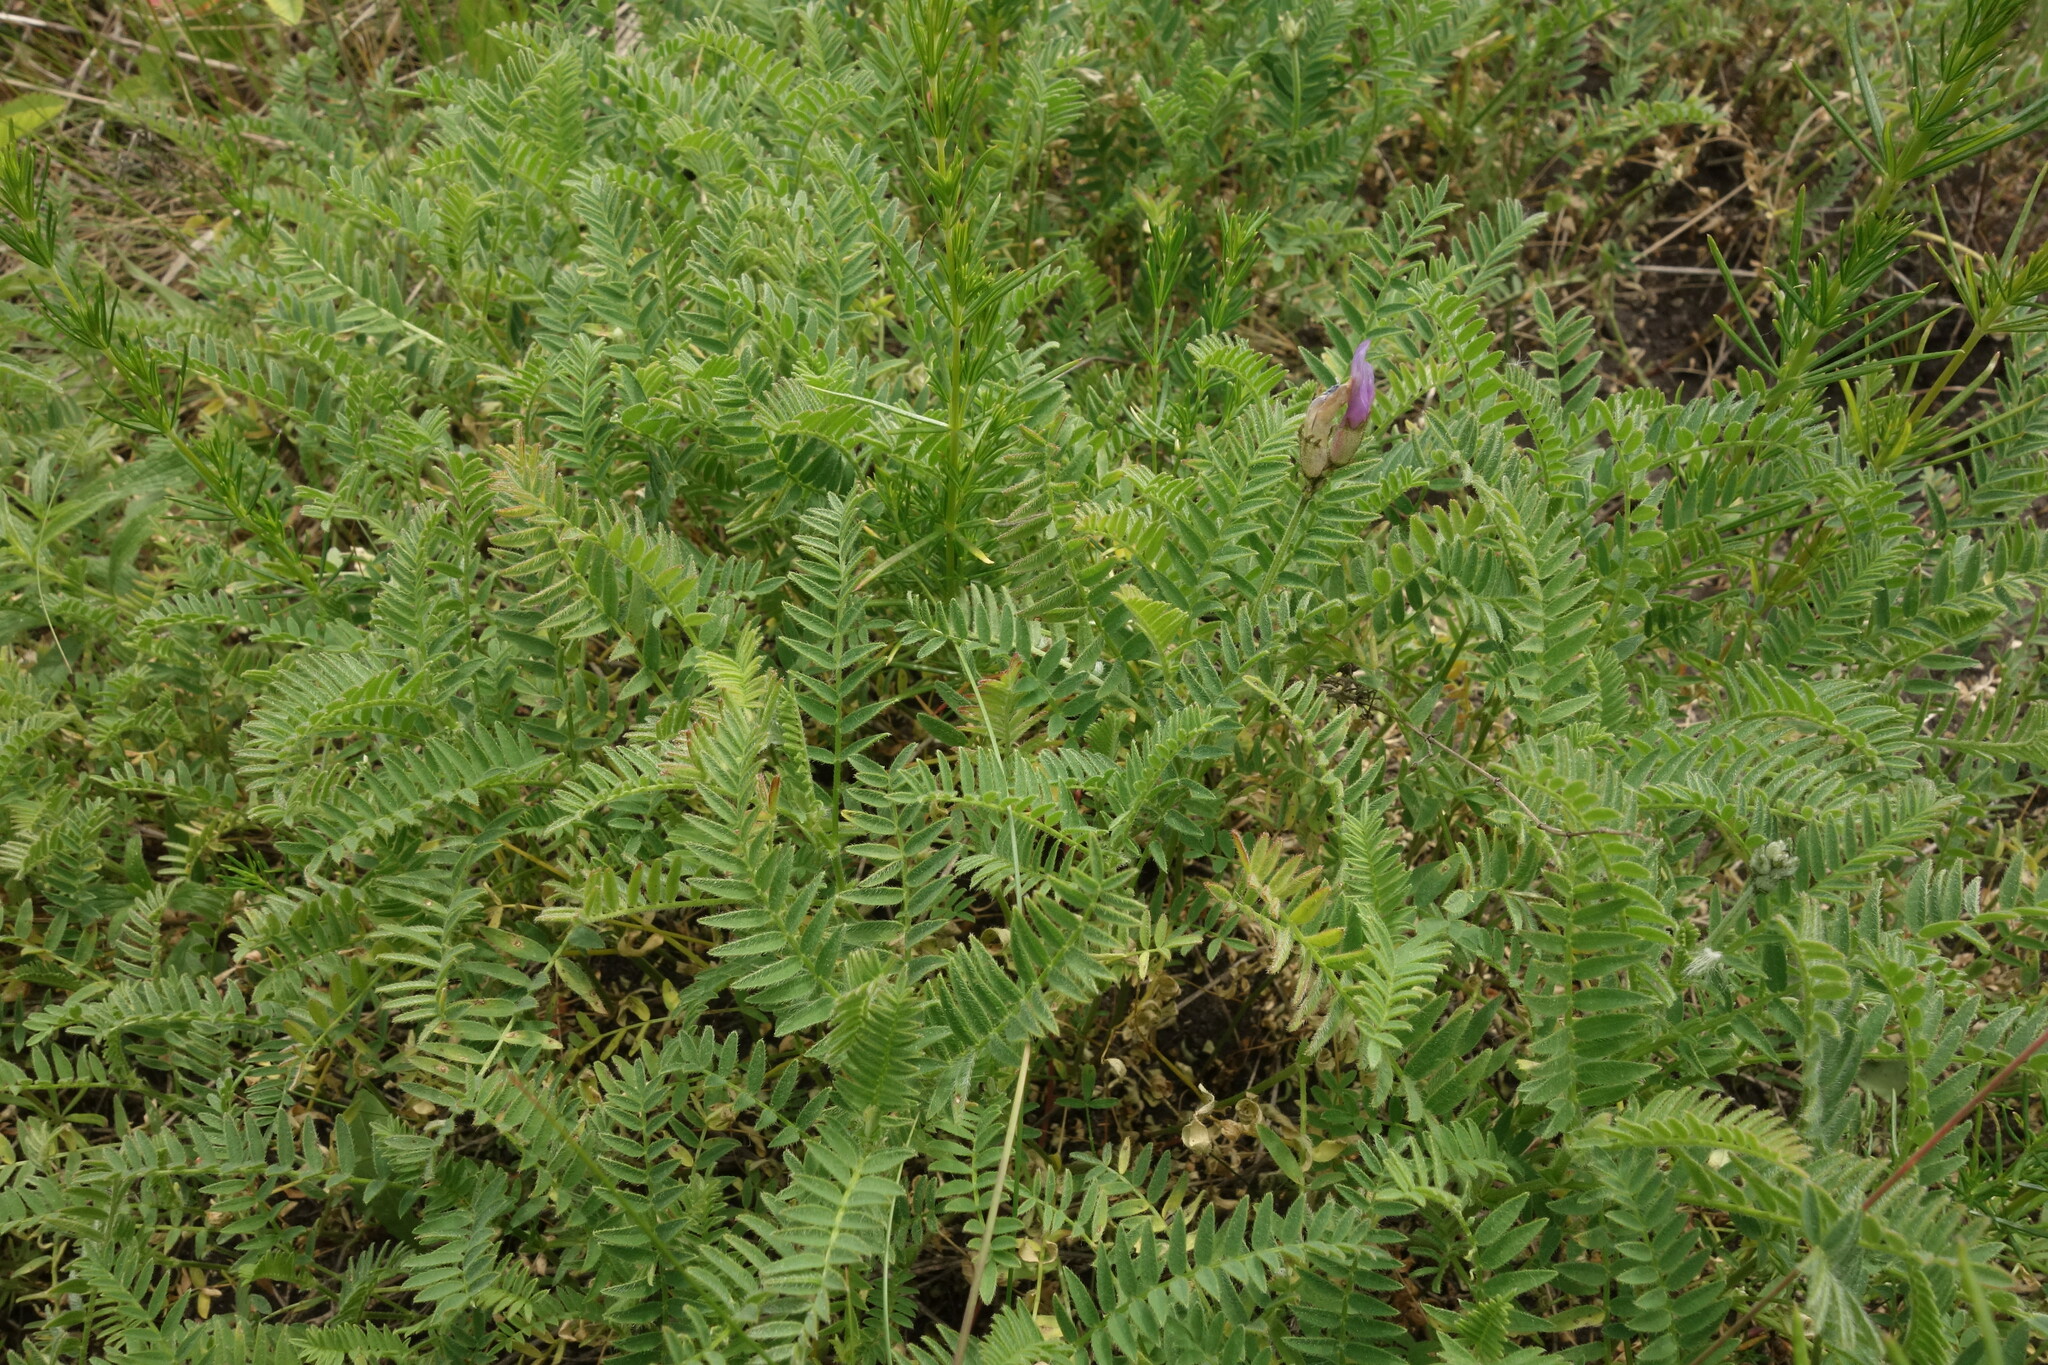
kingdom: Plantae
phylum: Tracheophyta
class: Magnoliopsida
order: Fabales
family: Fabaceae
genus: Astragalus
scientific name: Astragalus danicus
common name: Purple milk-vetch
